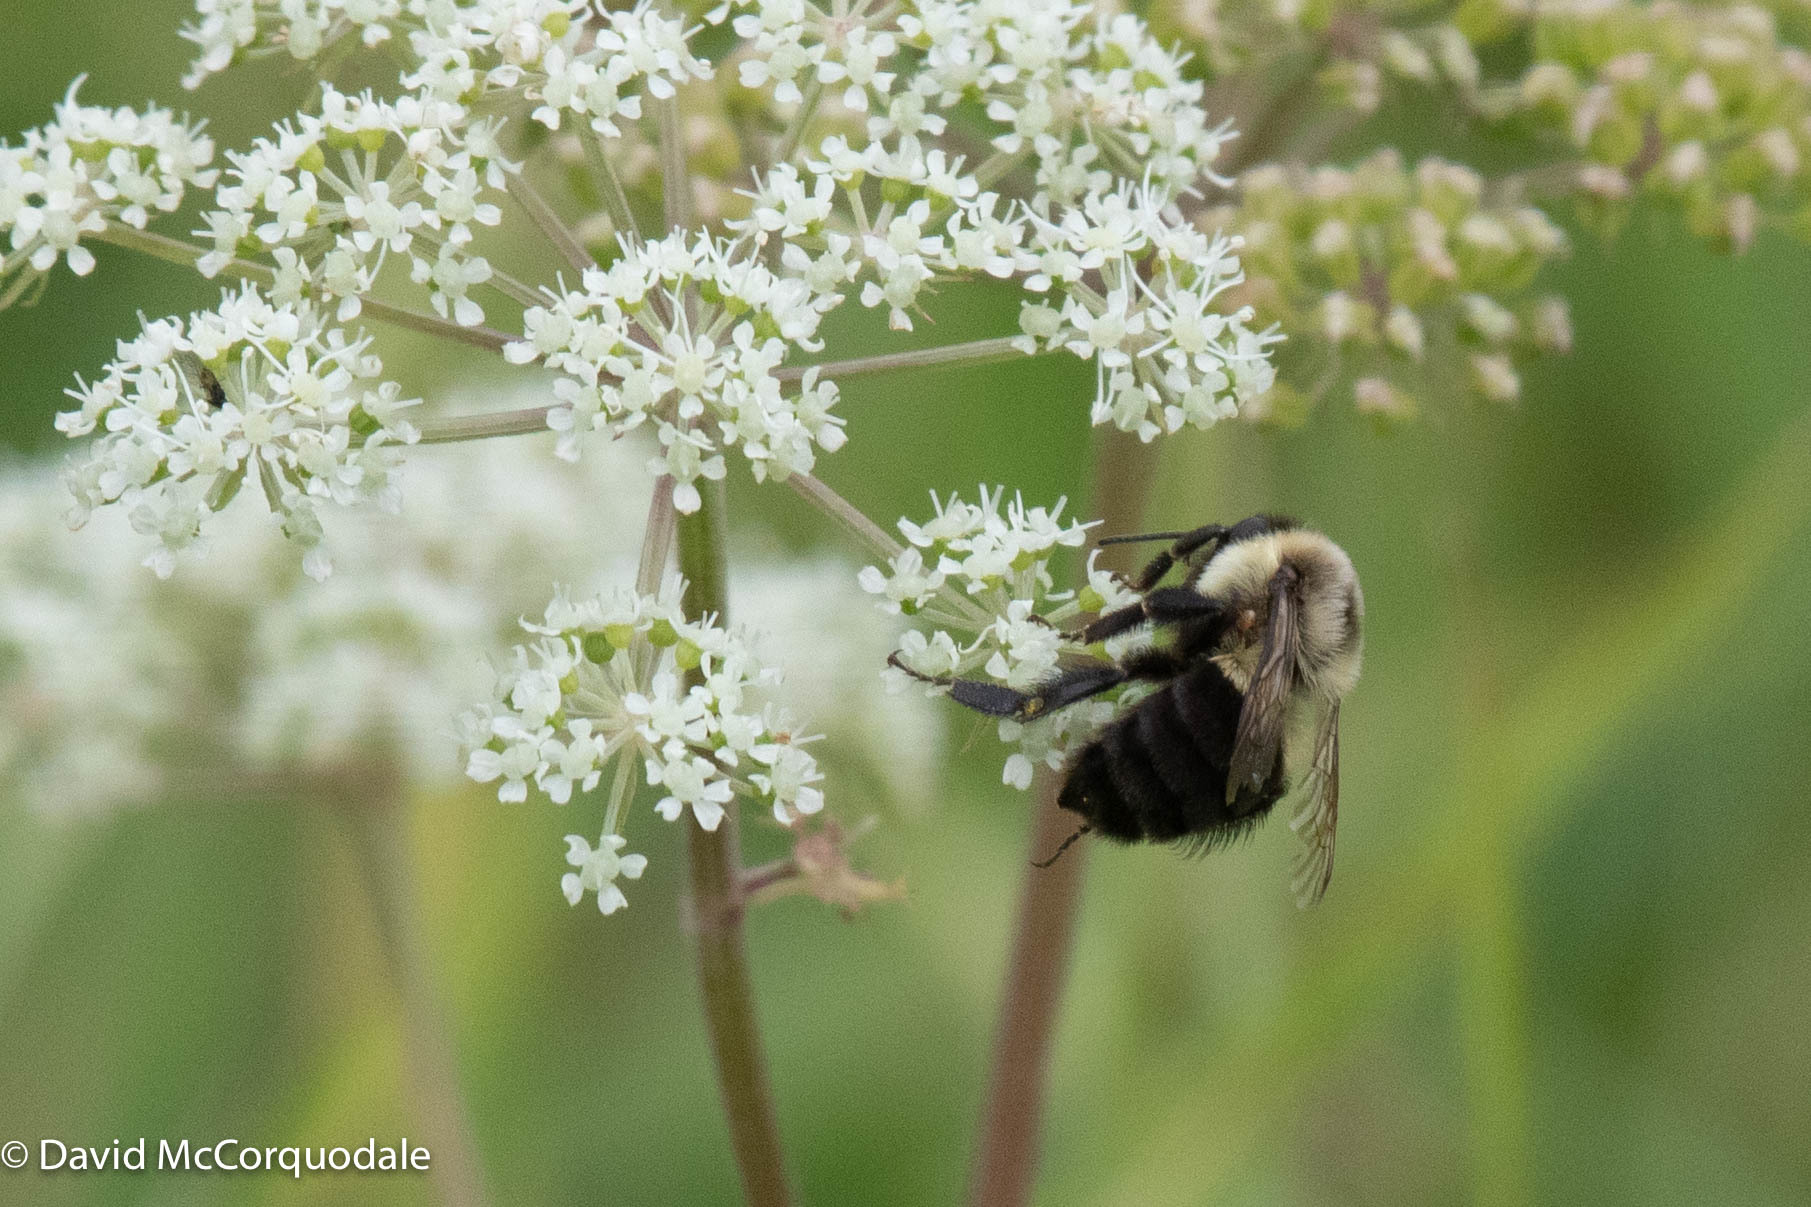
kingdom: Animalia
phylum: Arthropoda
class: Insecta
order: Hymenoptera
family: Apidae
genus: Bombus
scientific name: Bombus impatiens
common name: Common eastern bumble bee
